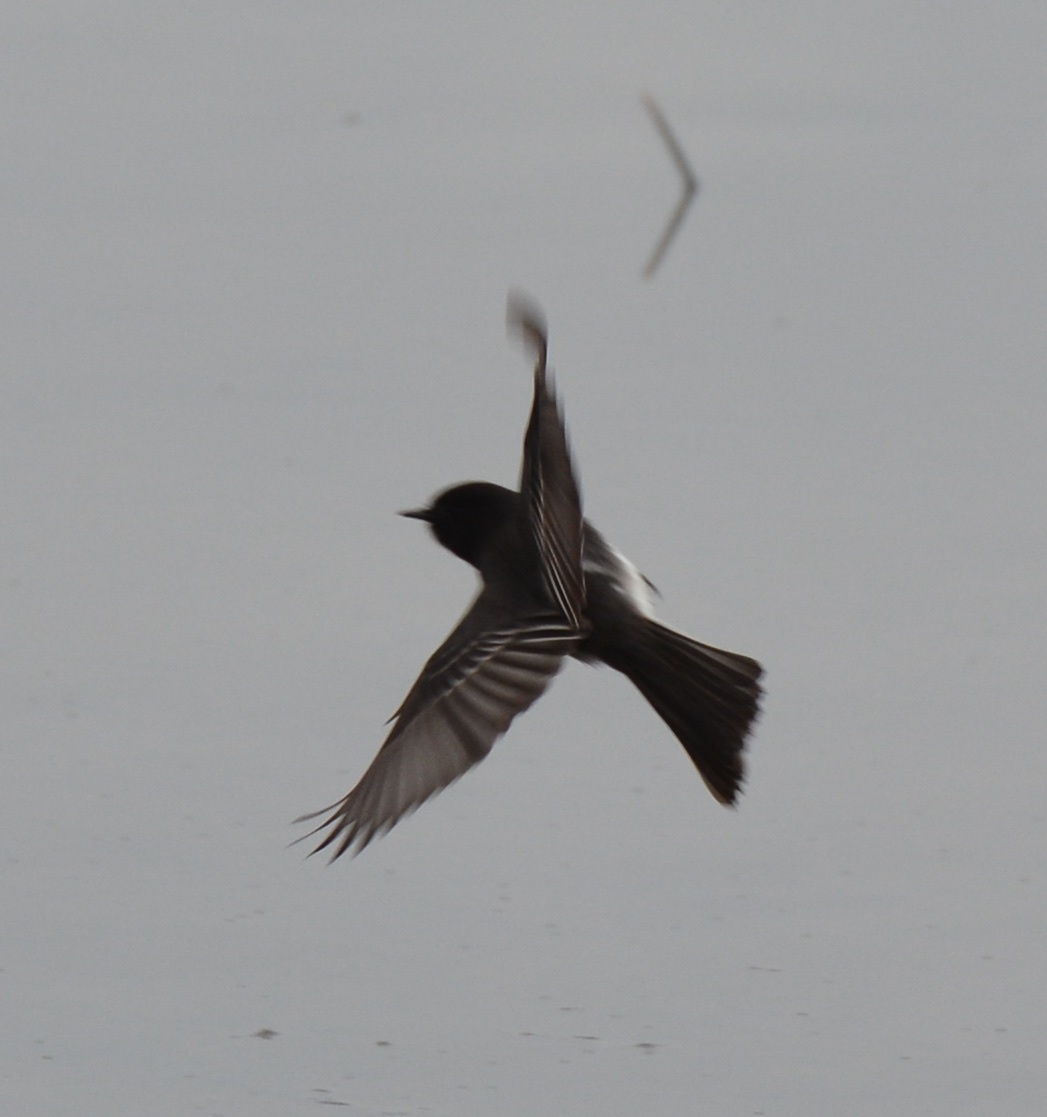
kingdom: Animalia
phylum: Chordata
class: Aves
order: Passeriformes
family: Tyrannidae
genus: Sayornis
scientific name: Sayornis nigricans
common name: Black phoebe
